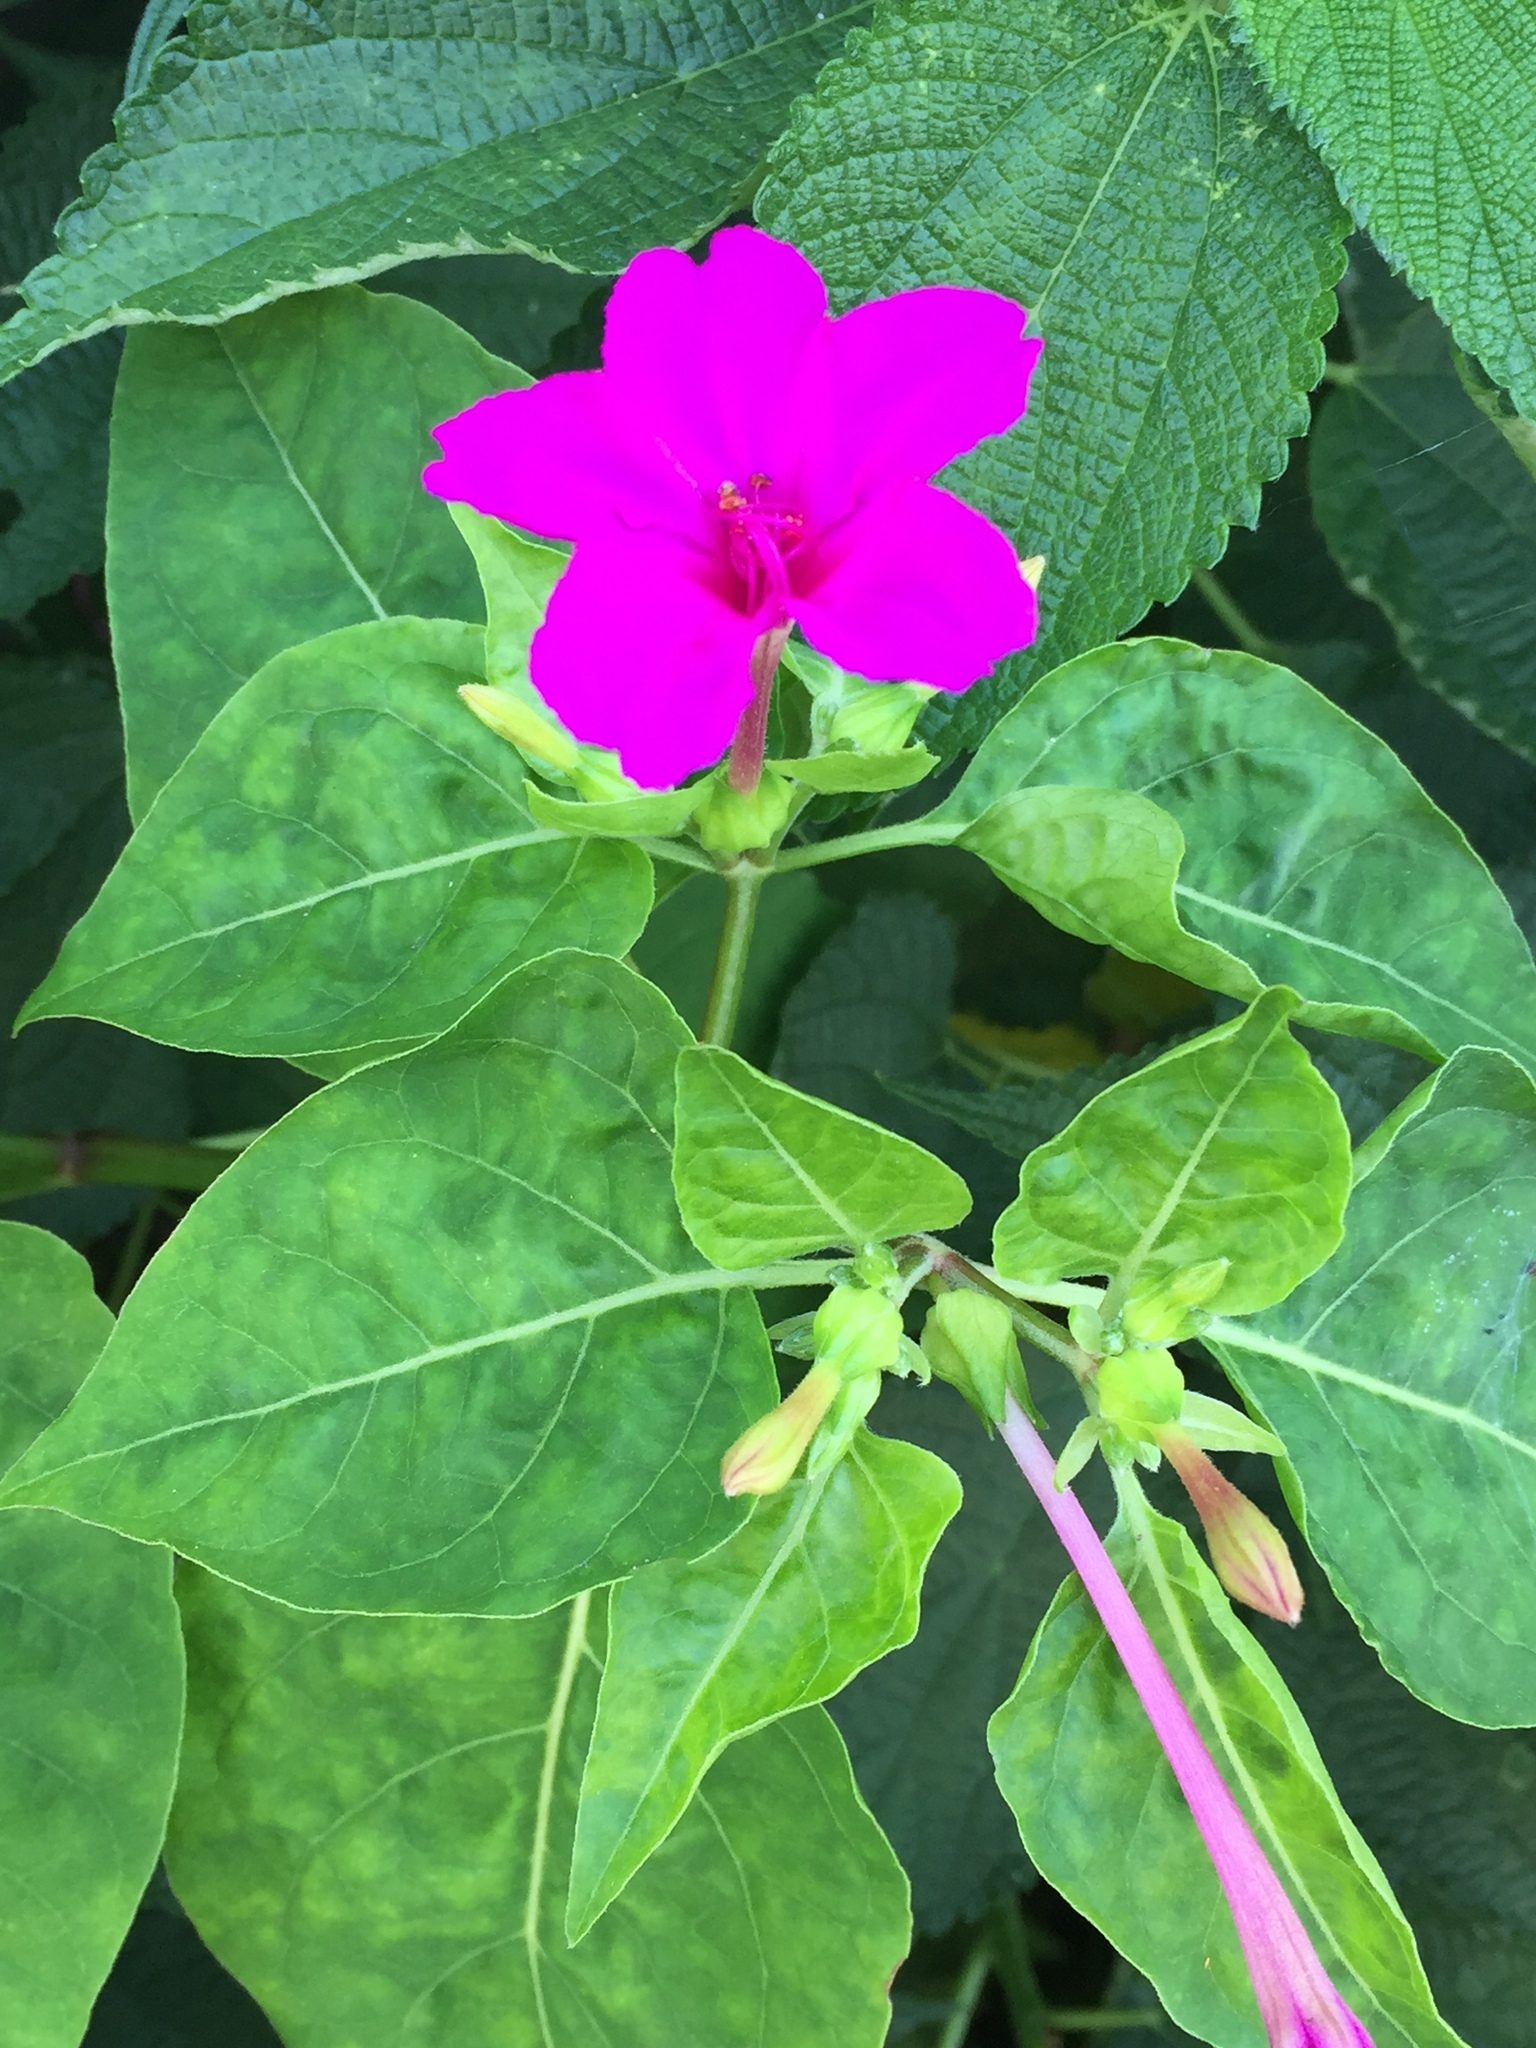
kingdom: Plantae
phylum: Tracheophyta
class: Magnoliopsida
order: Caryophyllales
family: Nyctaginaceae
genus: Mirabilis
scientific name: Mirabilis jalapa
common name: Marvel-of-peru
